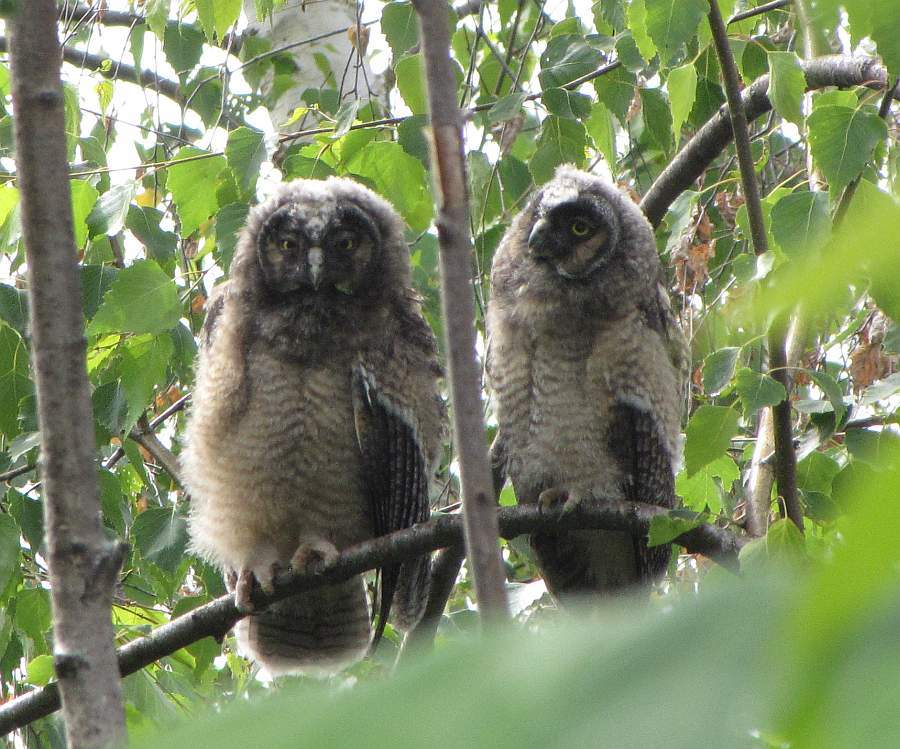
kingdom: Animalia
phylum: Chordata
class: Aves
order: Strigiformes
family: Strigidae
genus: Asio
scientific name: Asio otus
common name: Long-eared owl
